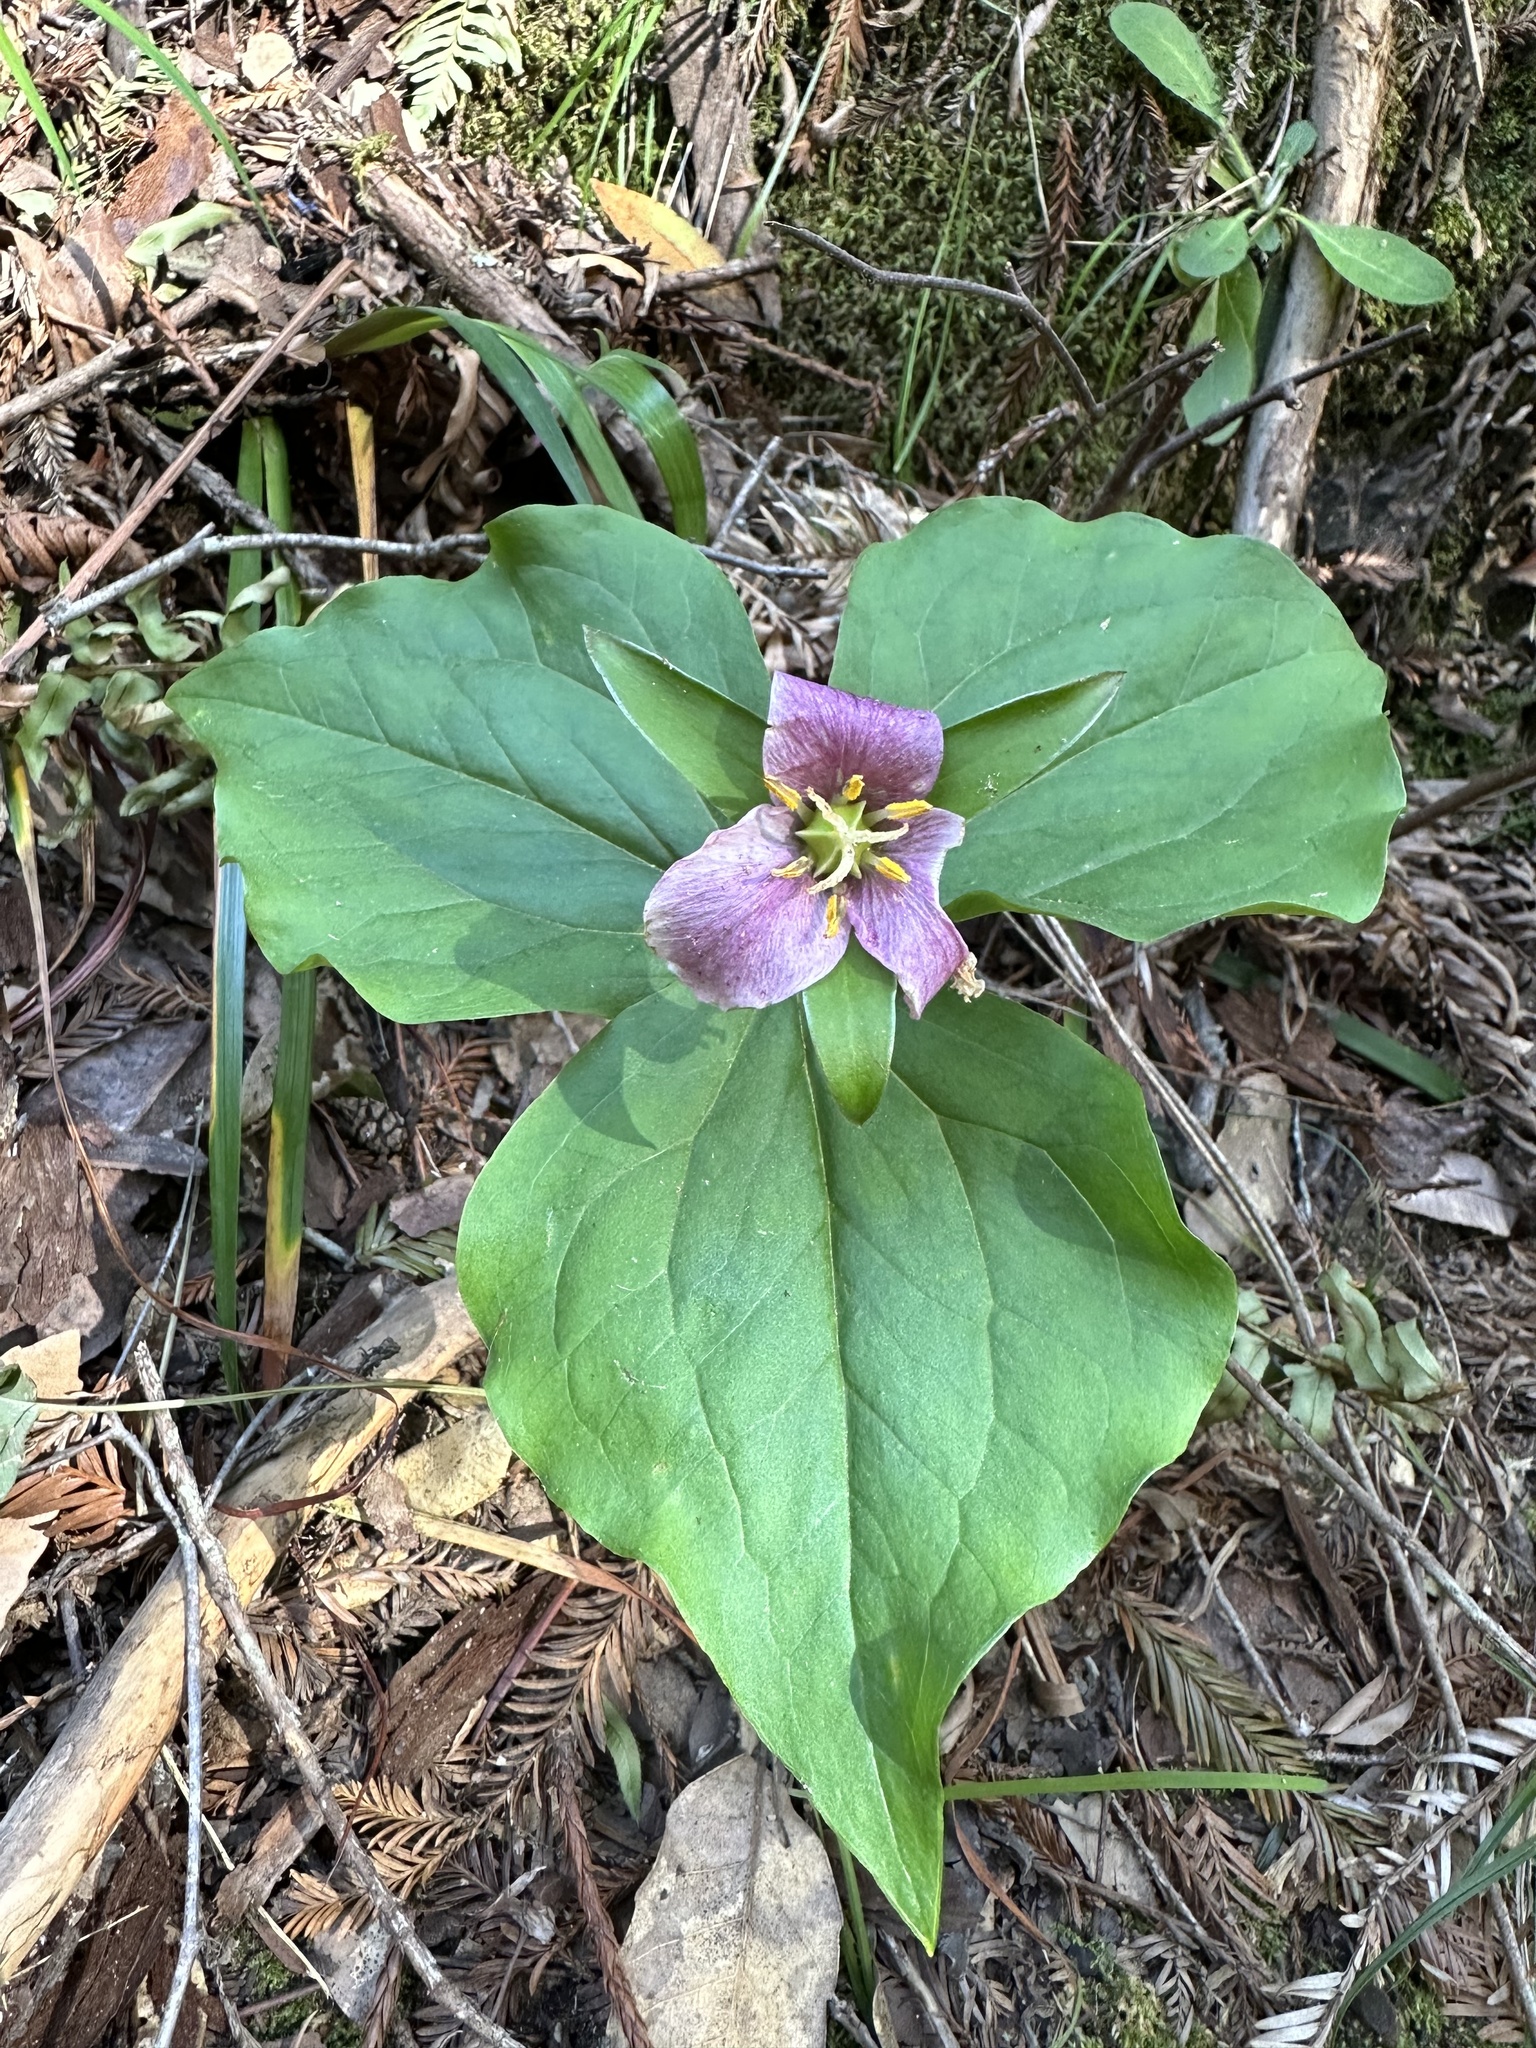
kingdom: Plantae
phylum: Tracheophyta
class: Liliopsida
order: Liliales
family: Melanthiaceae
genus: Trillium
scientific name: Trillium ovatum
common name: Pacific trillium
